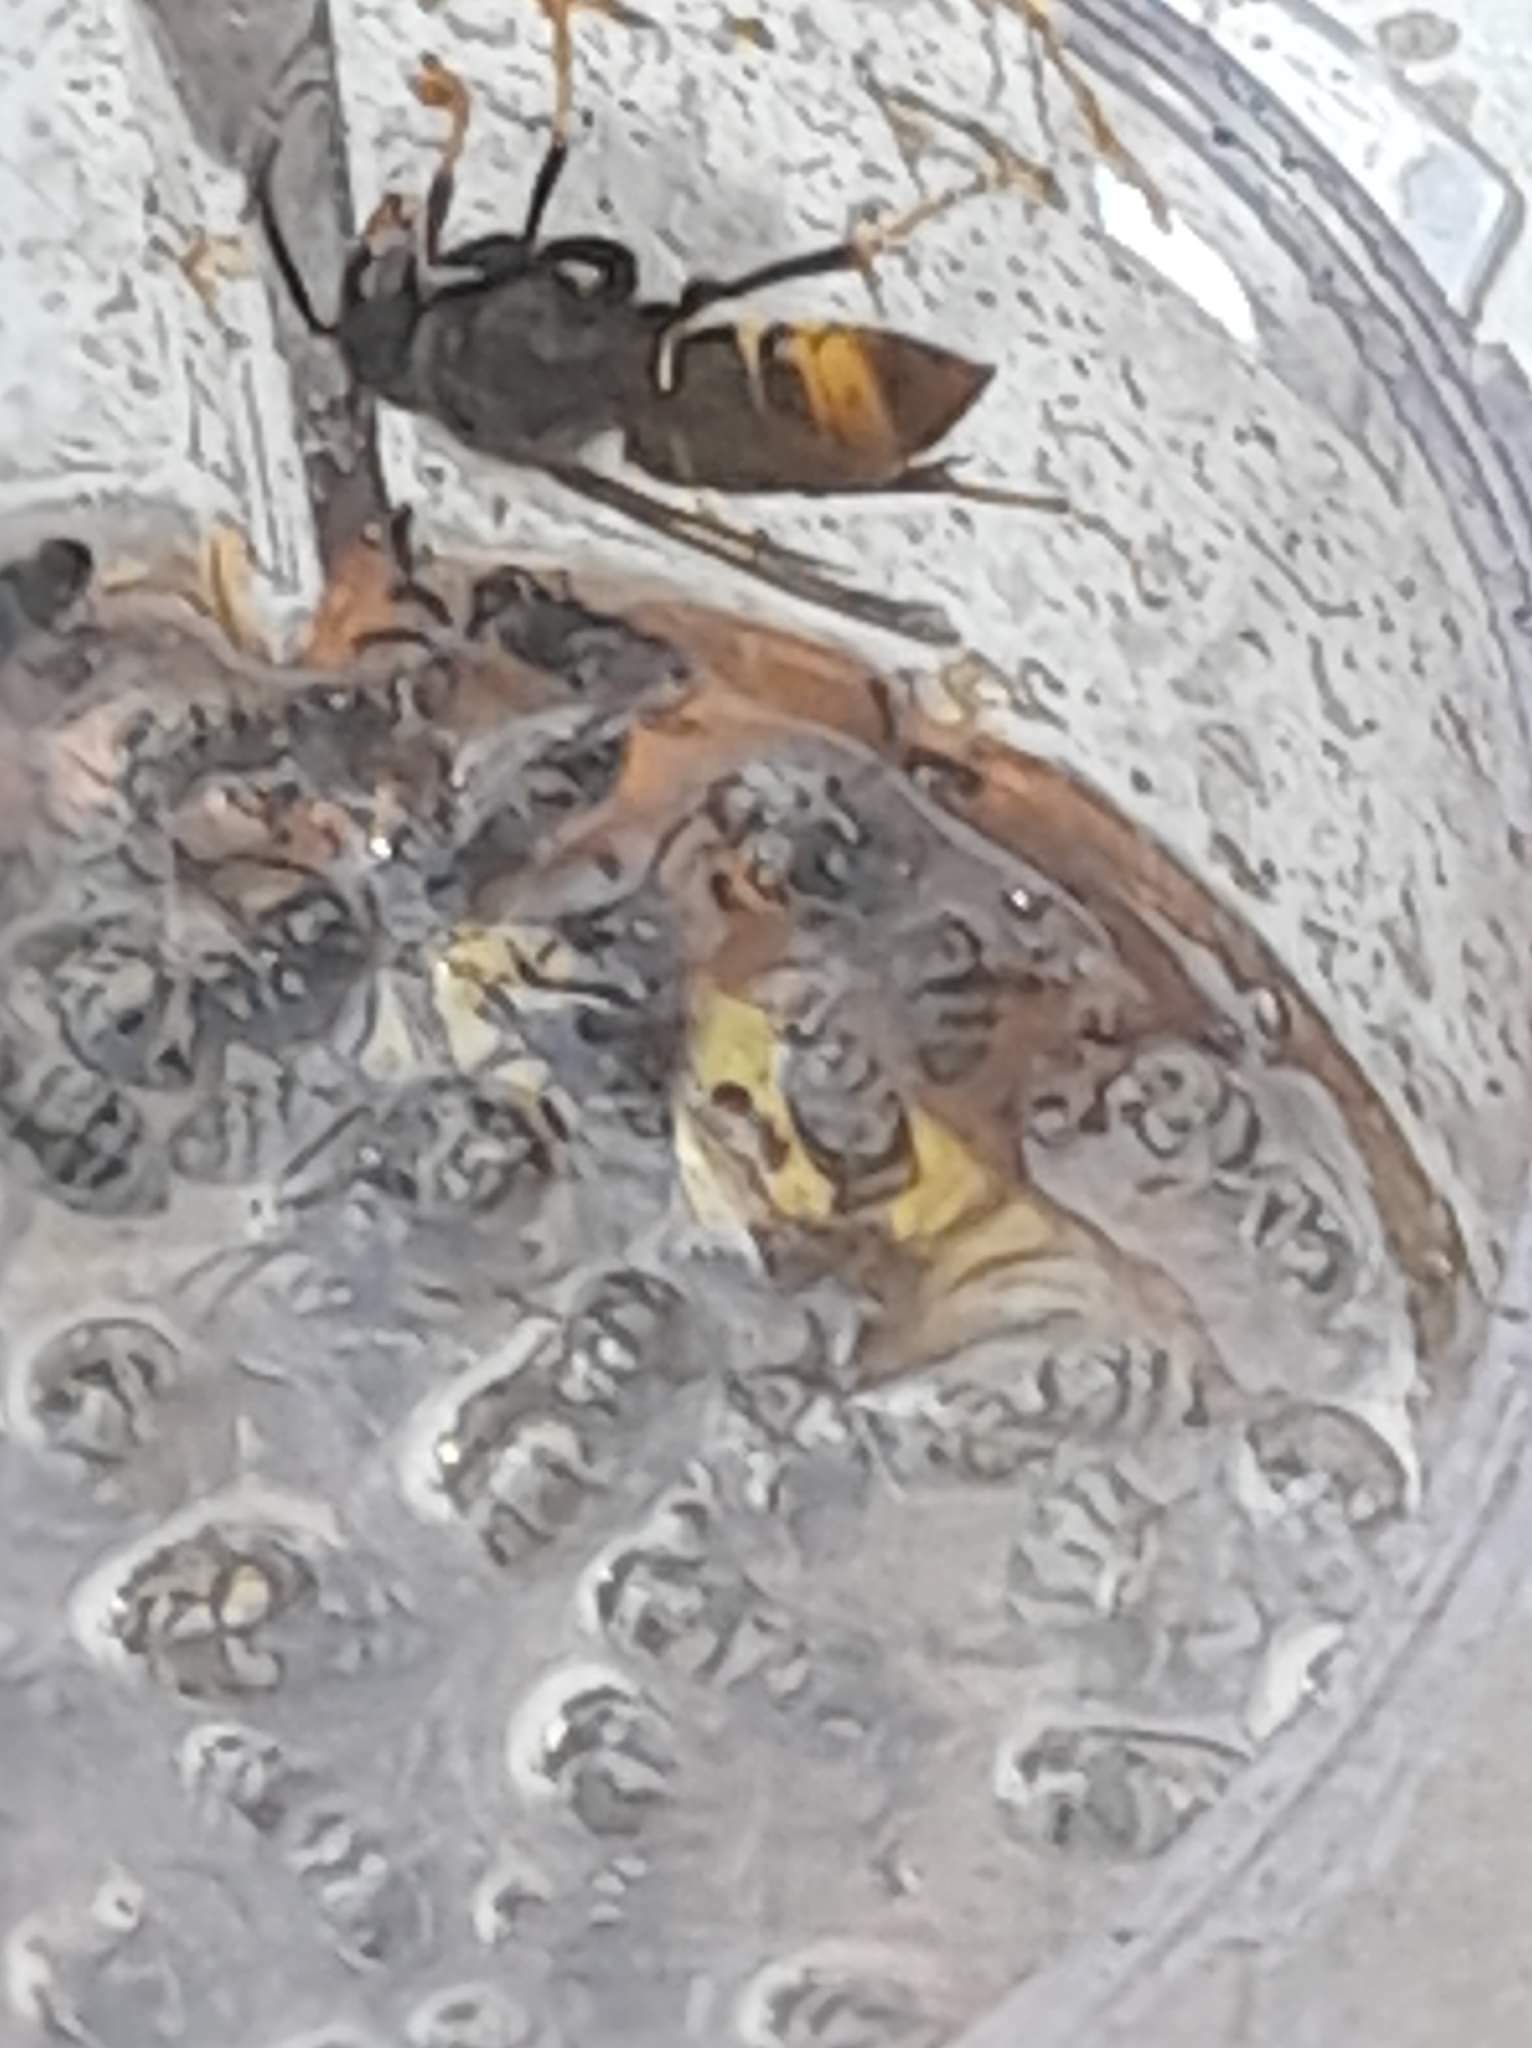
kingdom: Animalia
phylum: Arthropoda
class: Insecta
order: Hymenoptera
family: Vespidae
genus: Vespa
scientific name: Vespa velutina
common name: Asian hornet
